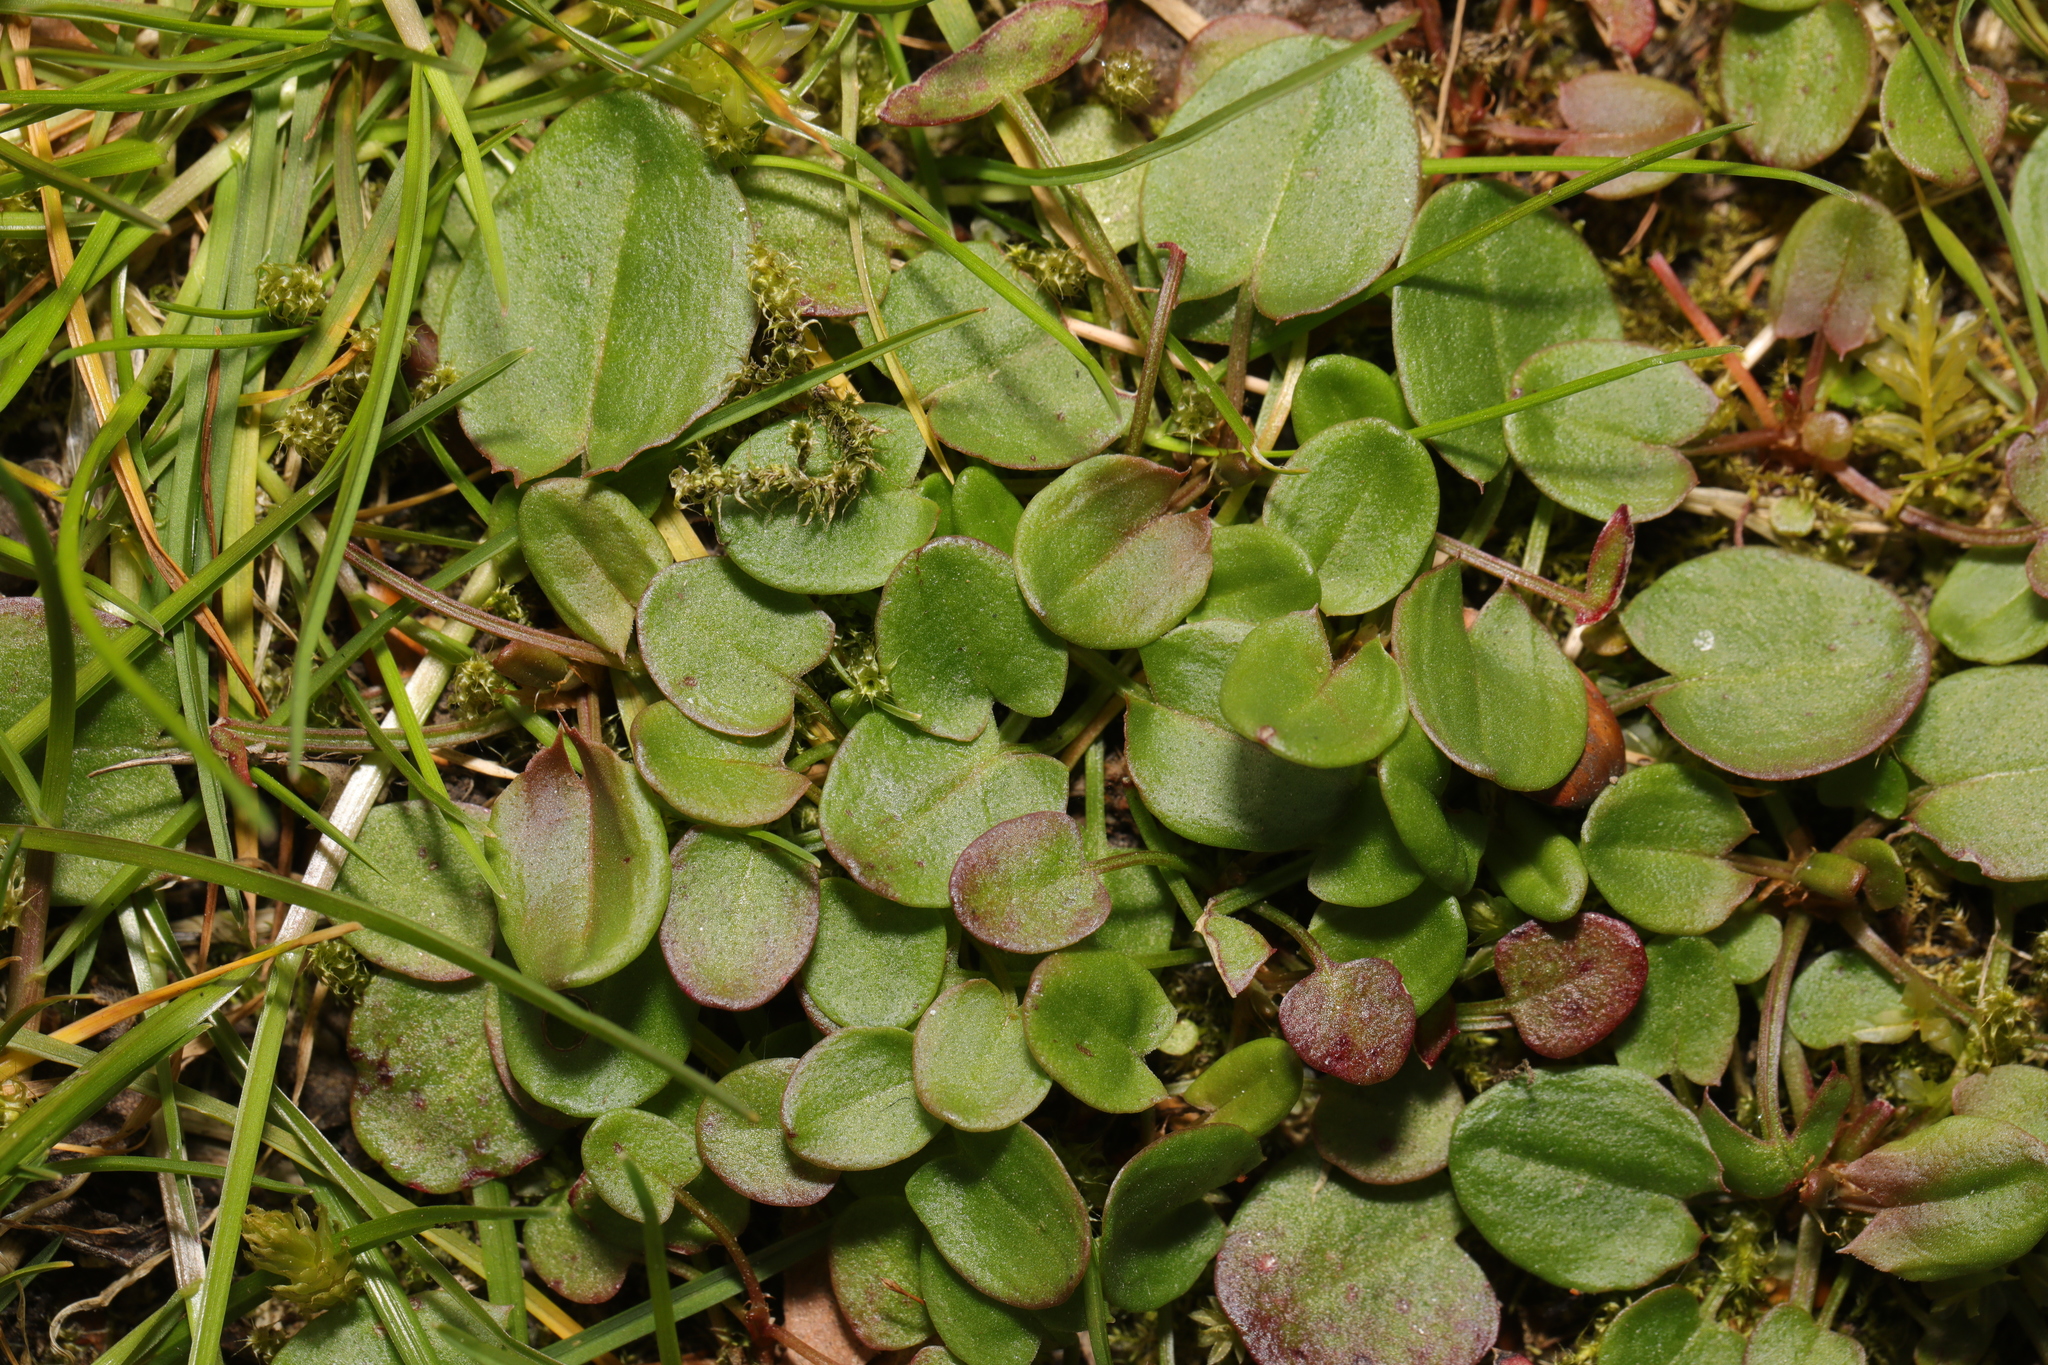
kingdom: Plantae
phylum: Tracheophyta
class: Magnoliopsida
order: Caryophyllales
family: Polygonaceae
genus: Rumex
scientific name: Rumex acetosa
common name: Garden sorrel
